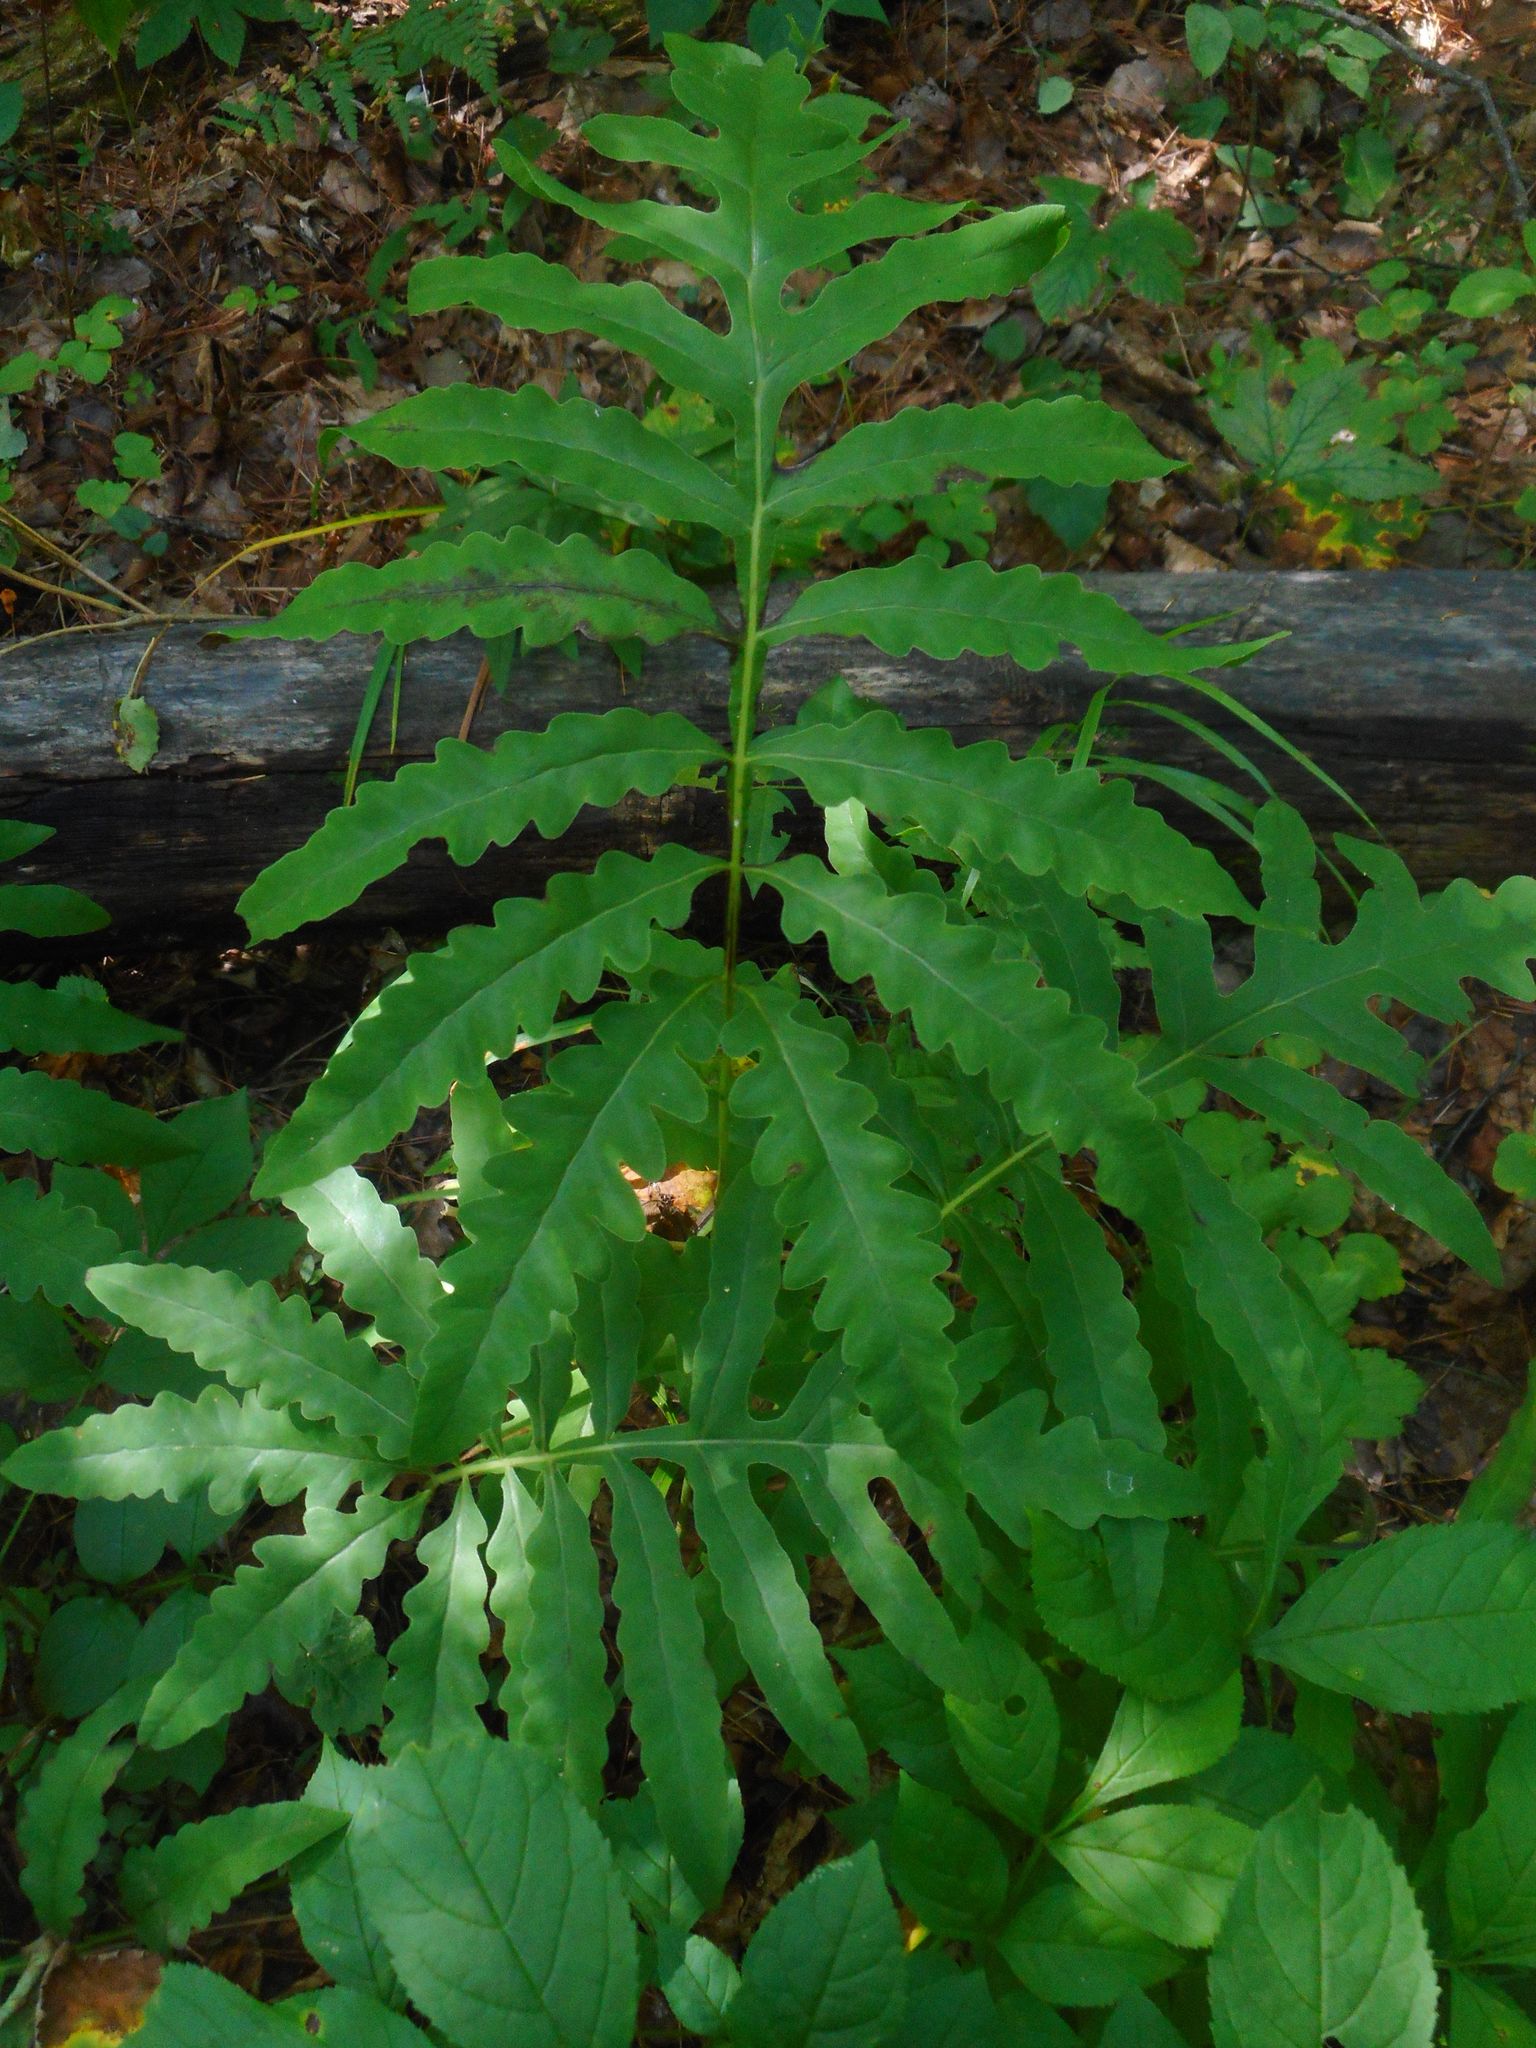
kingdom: Plantae
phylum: Tracheophyta
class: Polypodiopsida
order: Polypodiales
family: Onocleaceae
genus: Onoclea
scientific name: Onoclea sensibilis
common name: Sensitive fern
